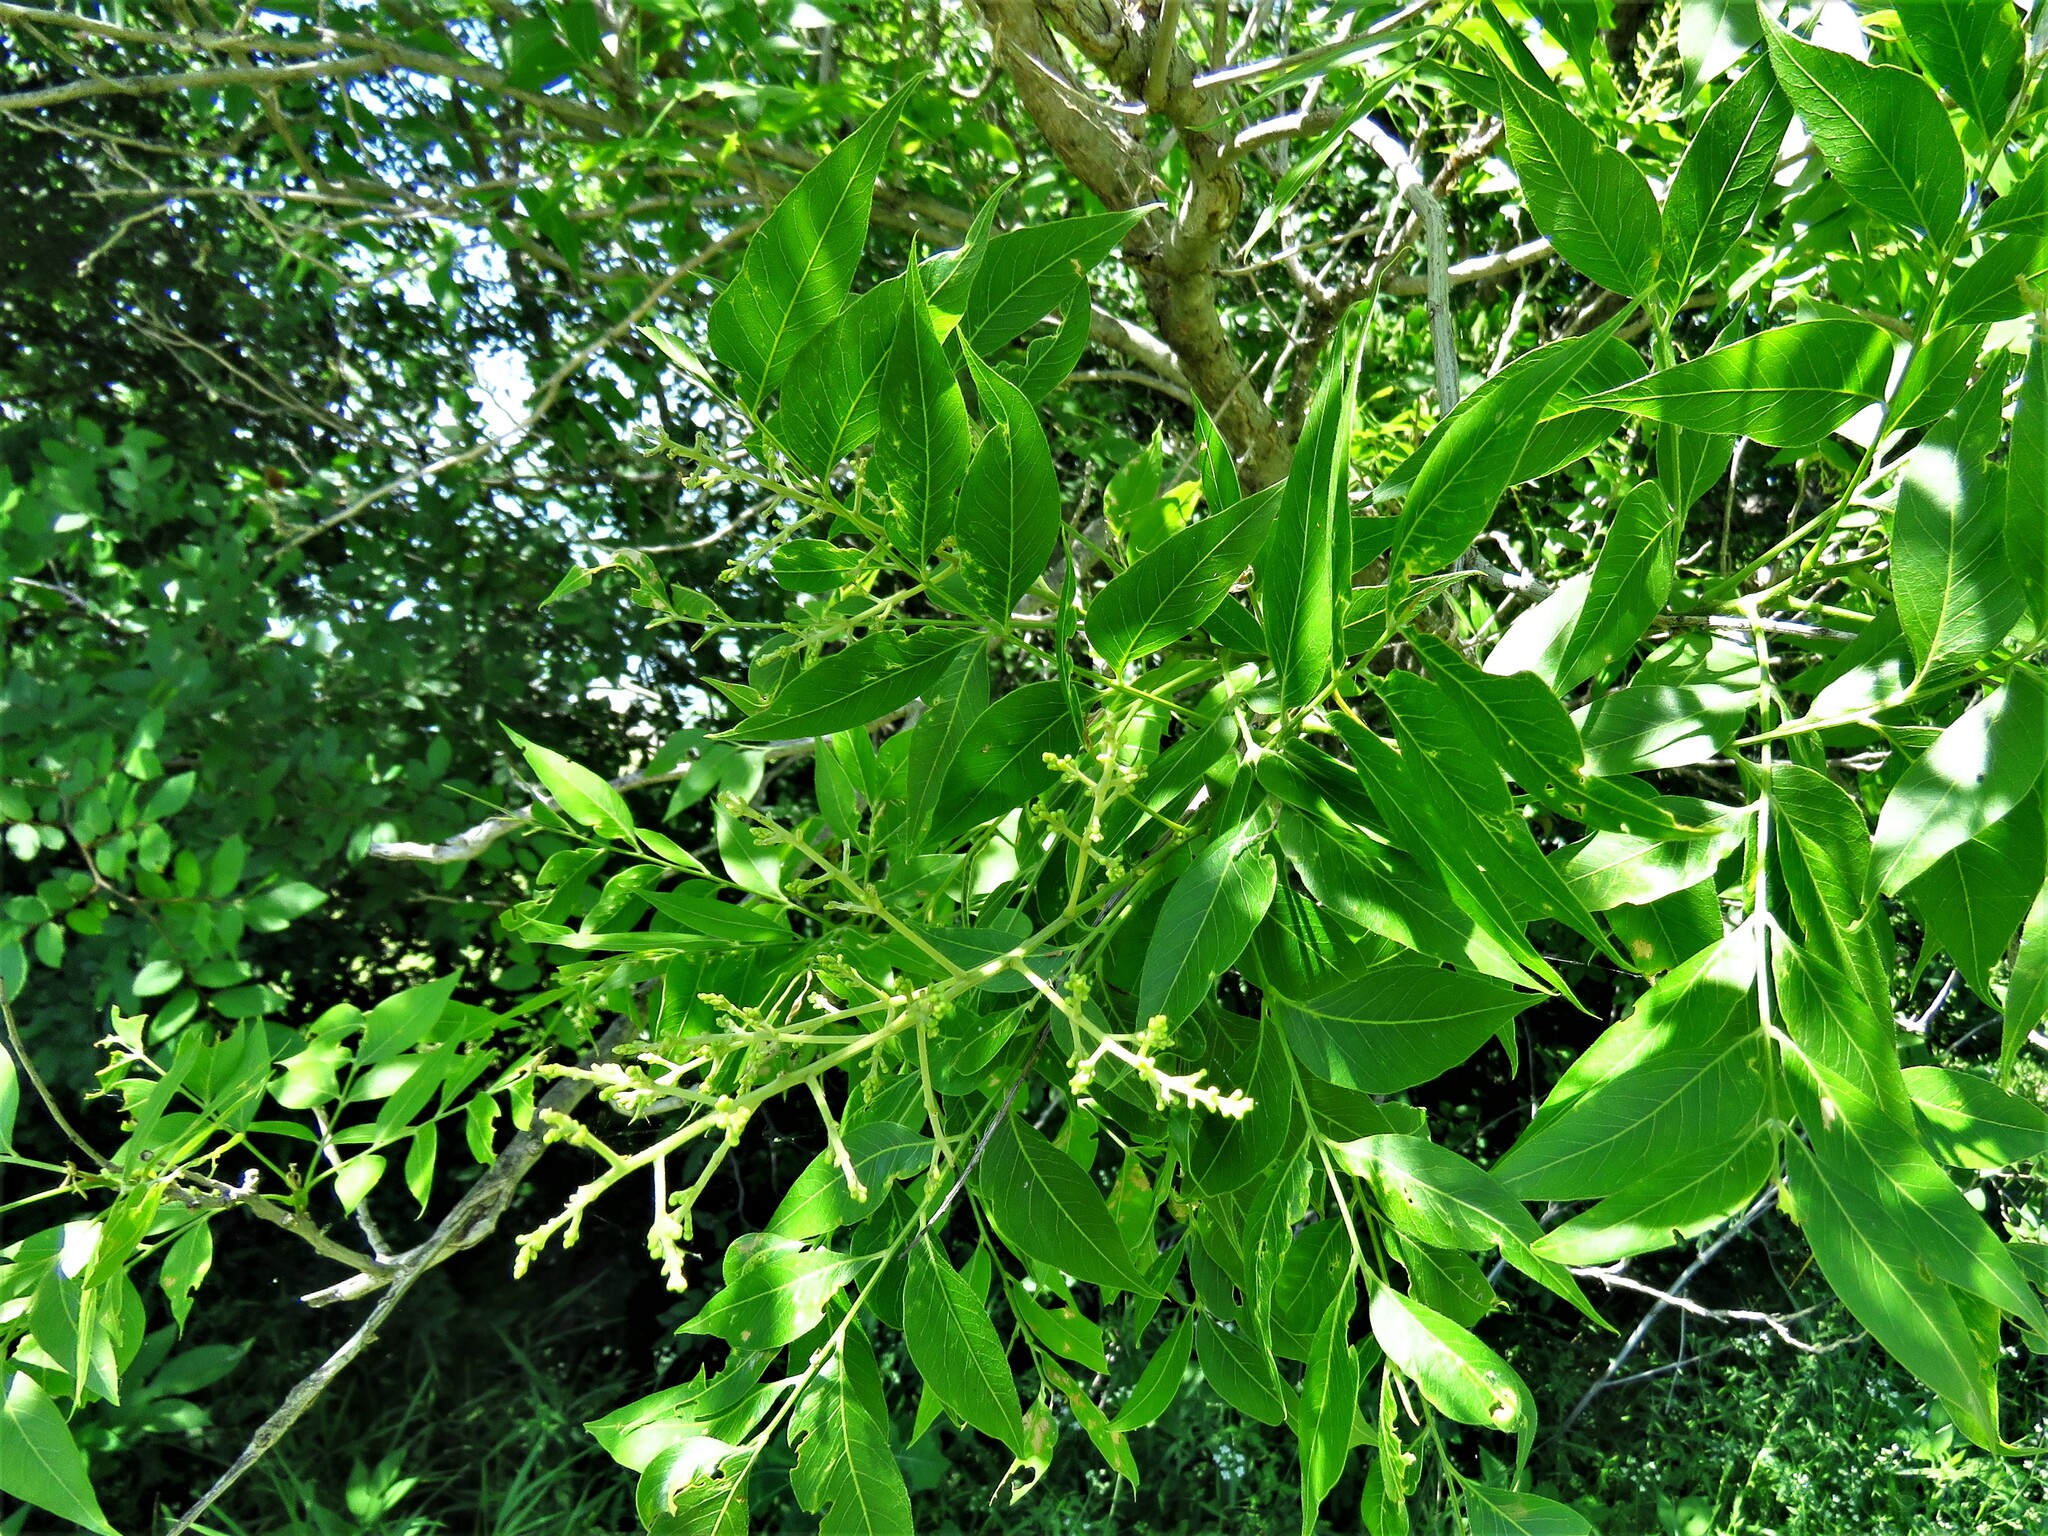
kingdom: Plantae
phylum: Tracheophyta
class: Magnoliopsida
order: Sapindales
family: Sapindaceae
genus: Sapindus
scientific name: Sapindus drummondii
